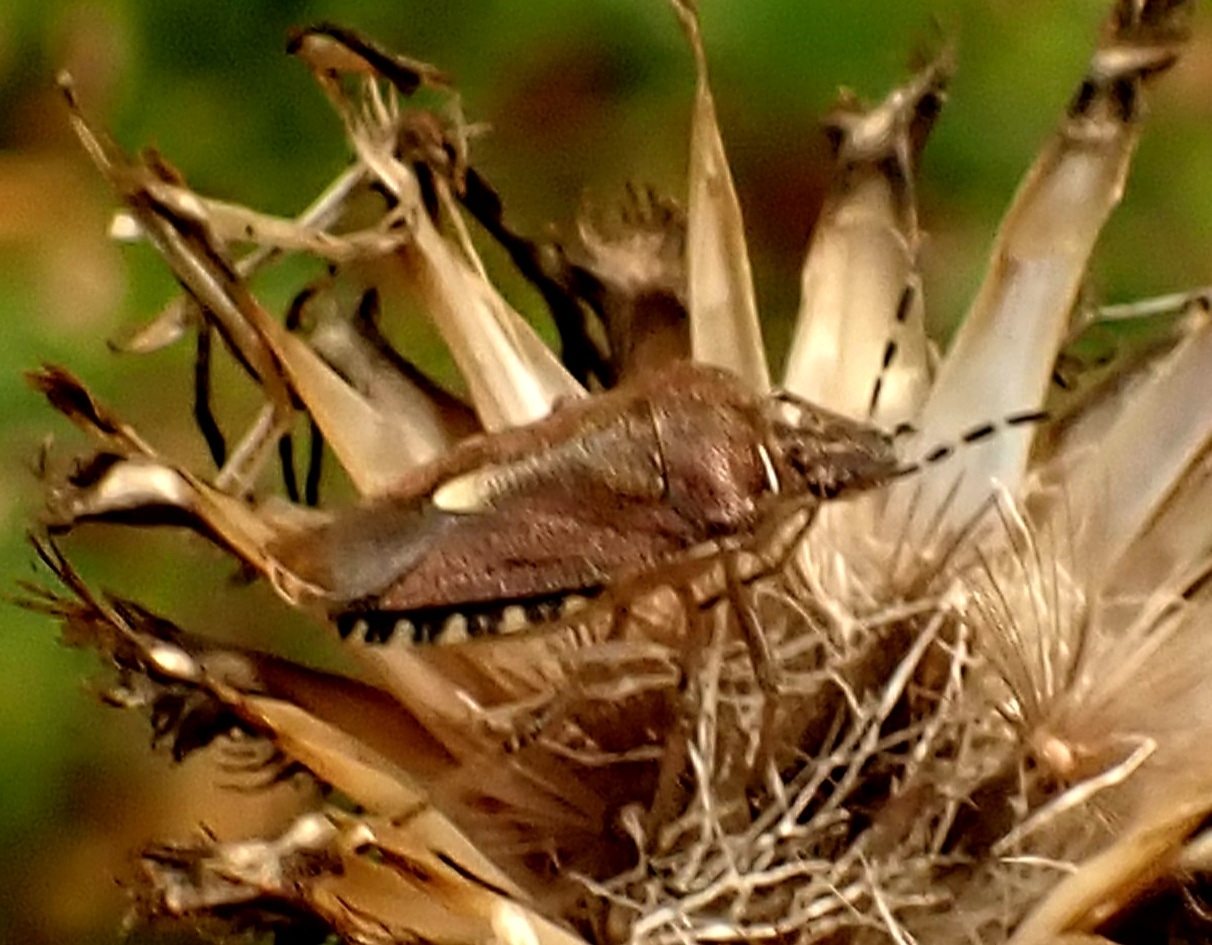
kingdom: Animalia
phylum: Arthropoda
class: Insecta
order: Hemiptera
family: Pentatomidae
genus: Dolycoris
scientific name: Dolycoris baccarum
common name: Sloe bug
